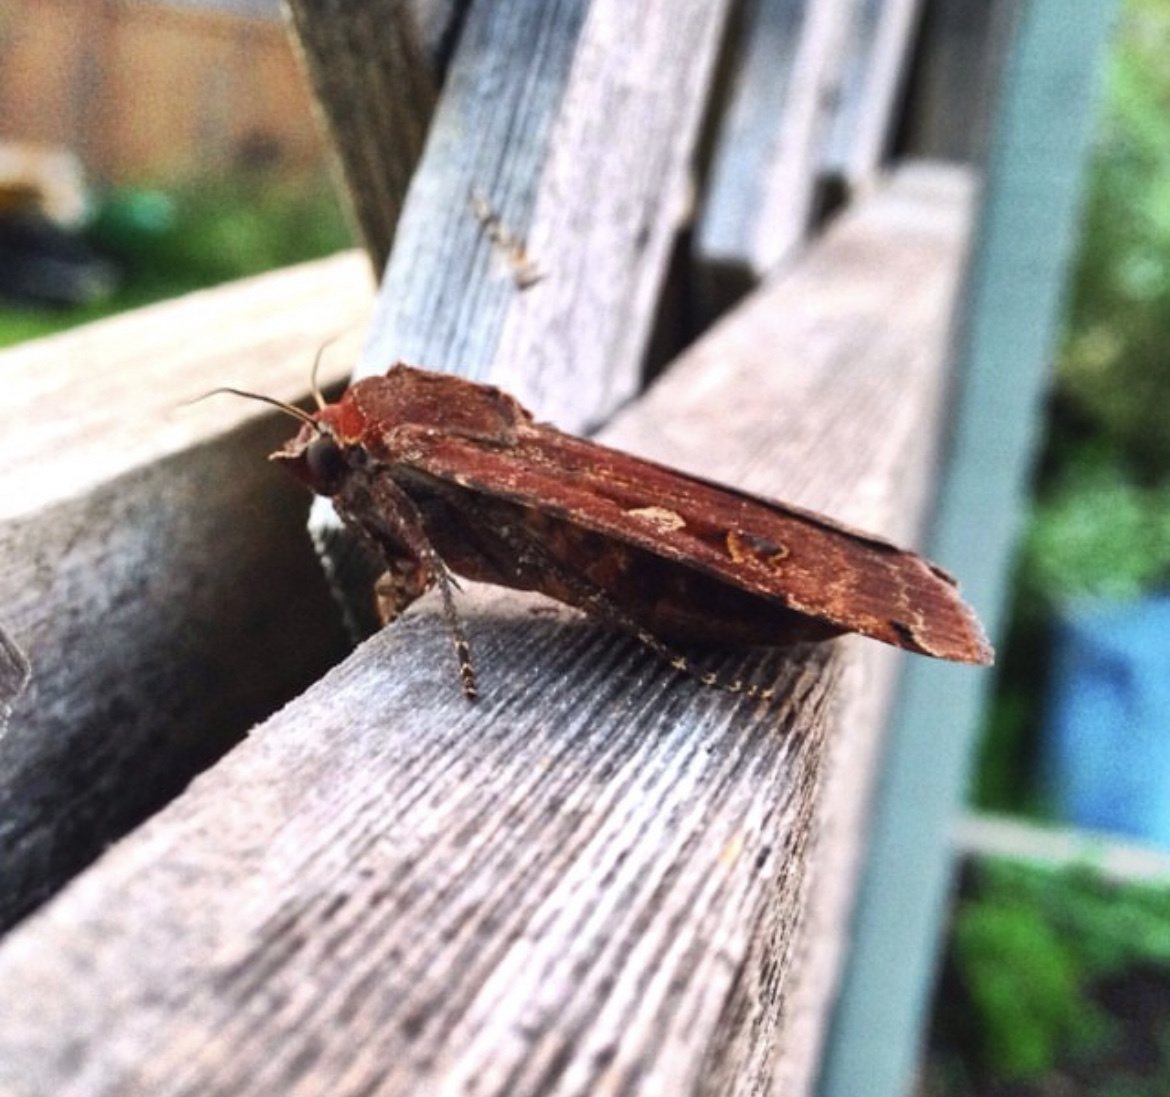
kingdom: Animalia
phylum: Arthropoda
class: Insecta
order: Lepidoptera
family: Noctuidae
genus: Noctua
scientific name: Noctua pronuba
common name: Large yellow underwing
